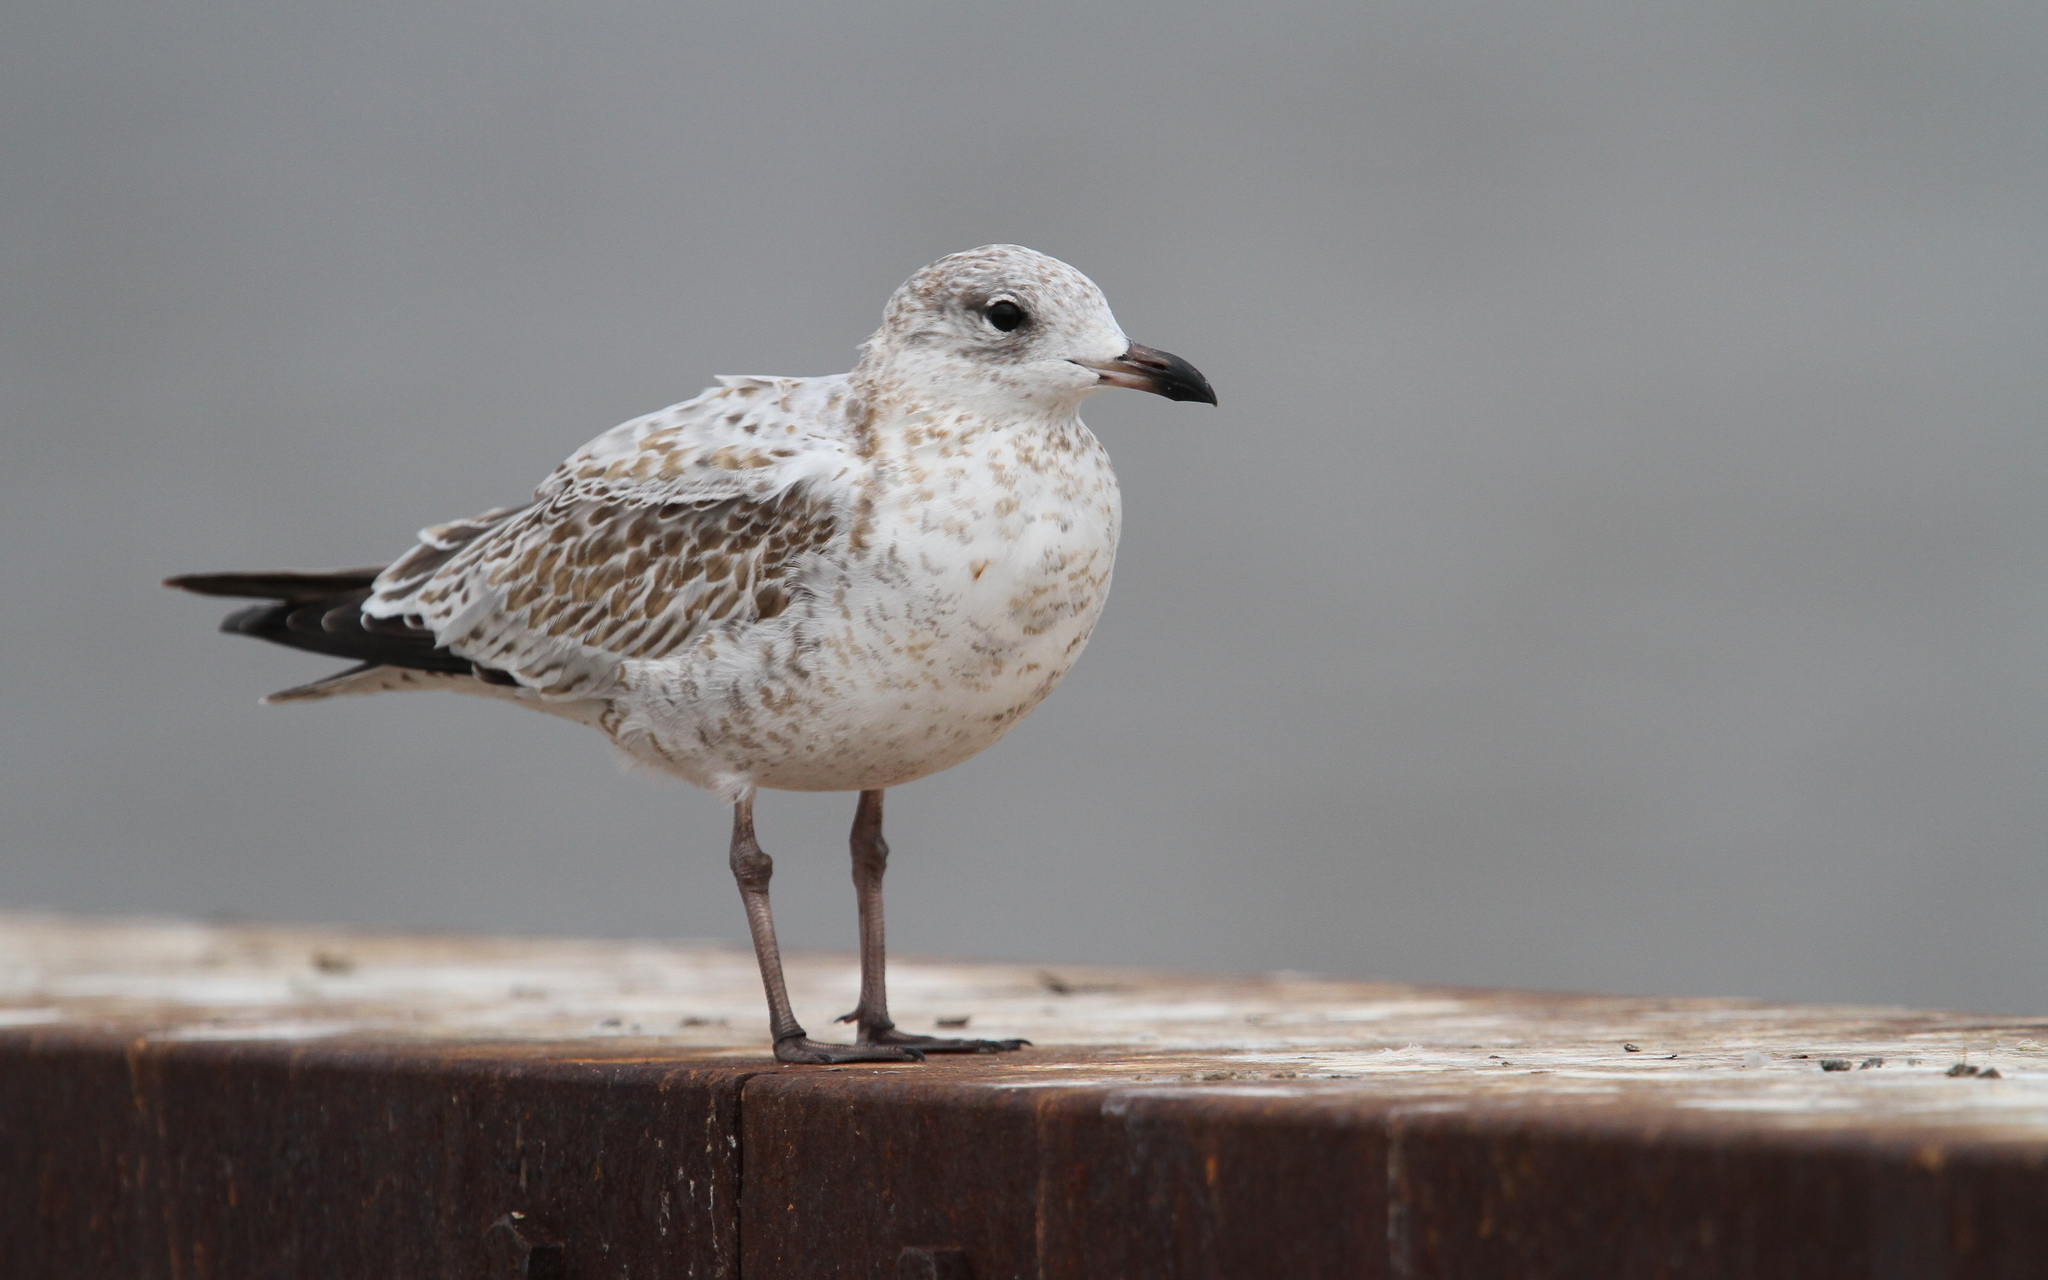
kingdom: Animalia
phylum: Chordata
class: Aves
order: Charadriiformes
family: Laridae
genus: Larus
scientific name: Larus delawarensis
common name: Ring-billed gull
